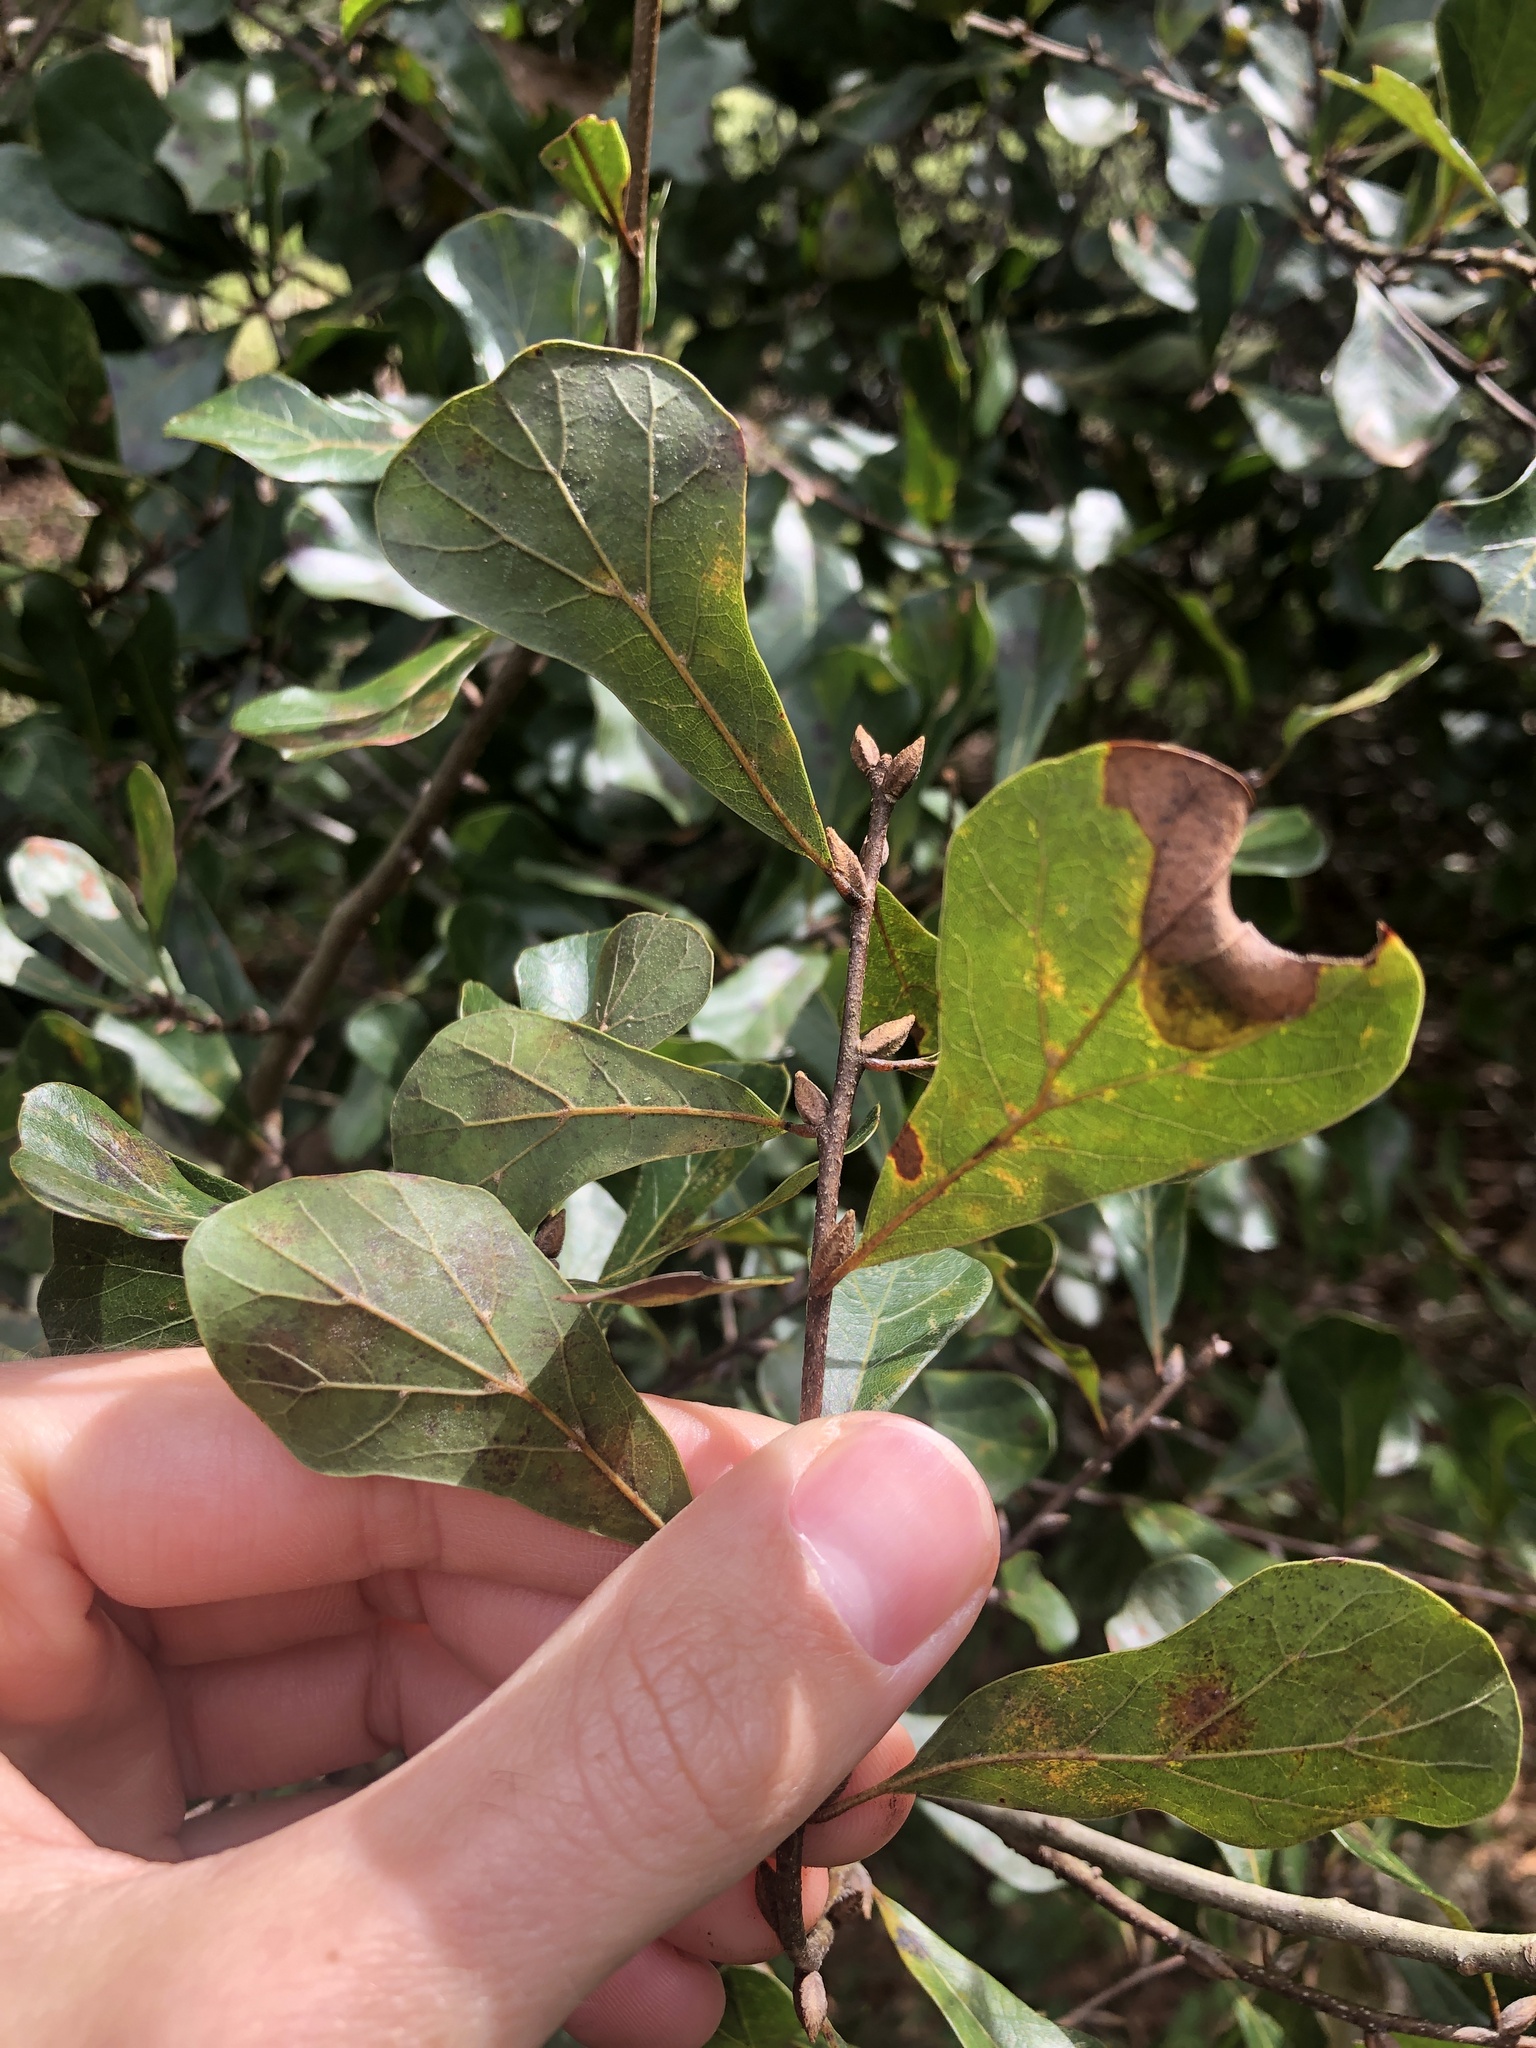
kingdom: Plantae
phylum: Tracheophyta
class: Magnoliopsida
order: Fagales
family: Fagaceae
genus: Quercus
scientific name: Quercus nigra
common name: Water oak
